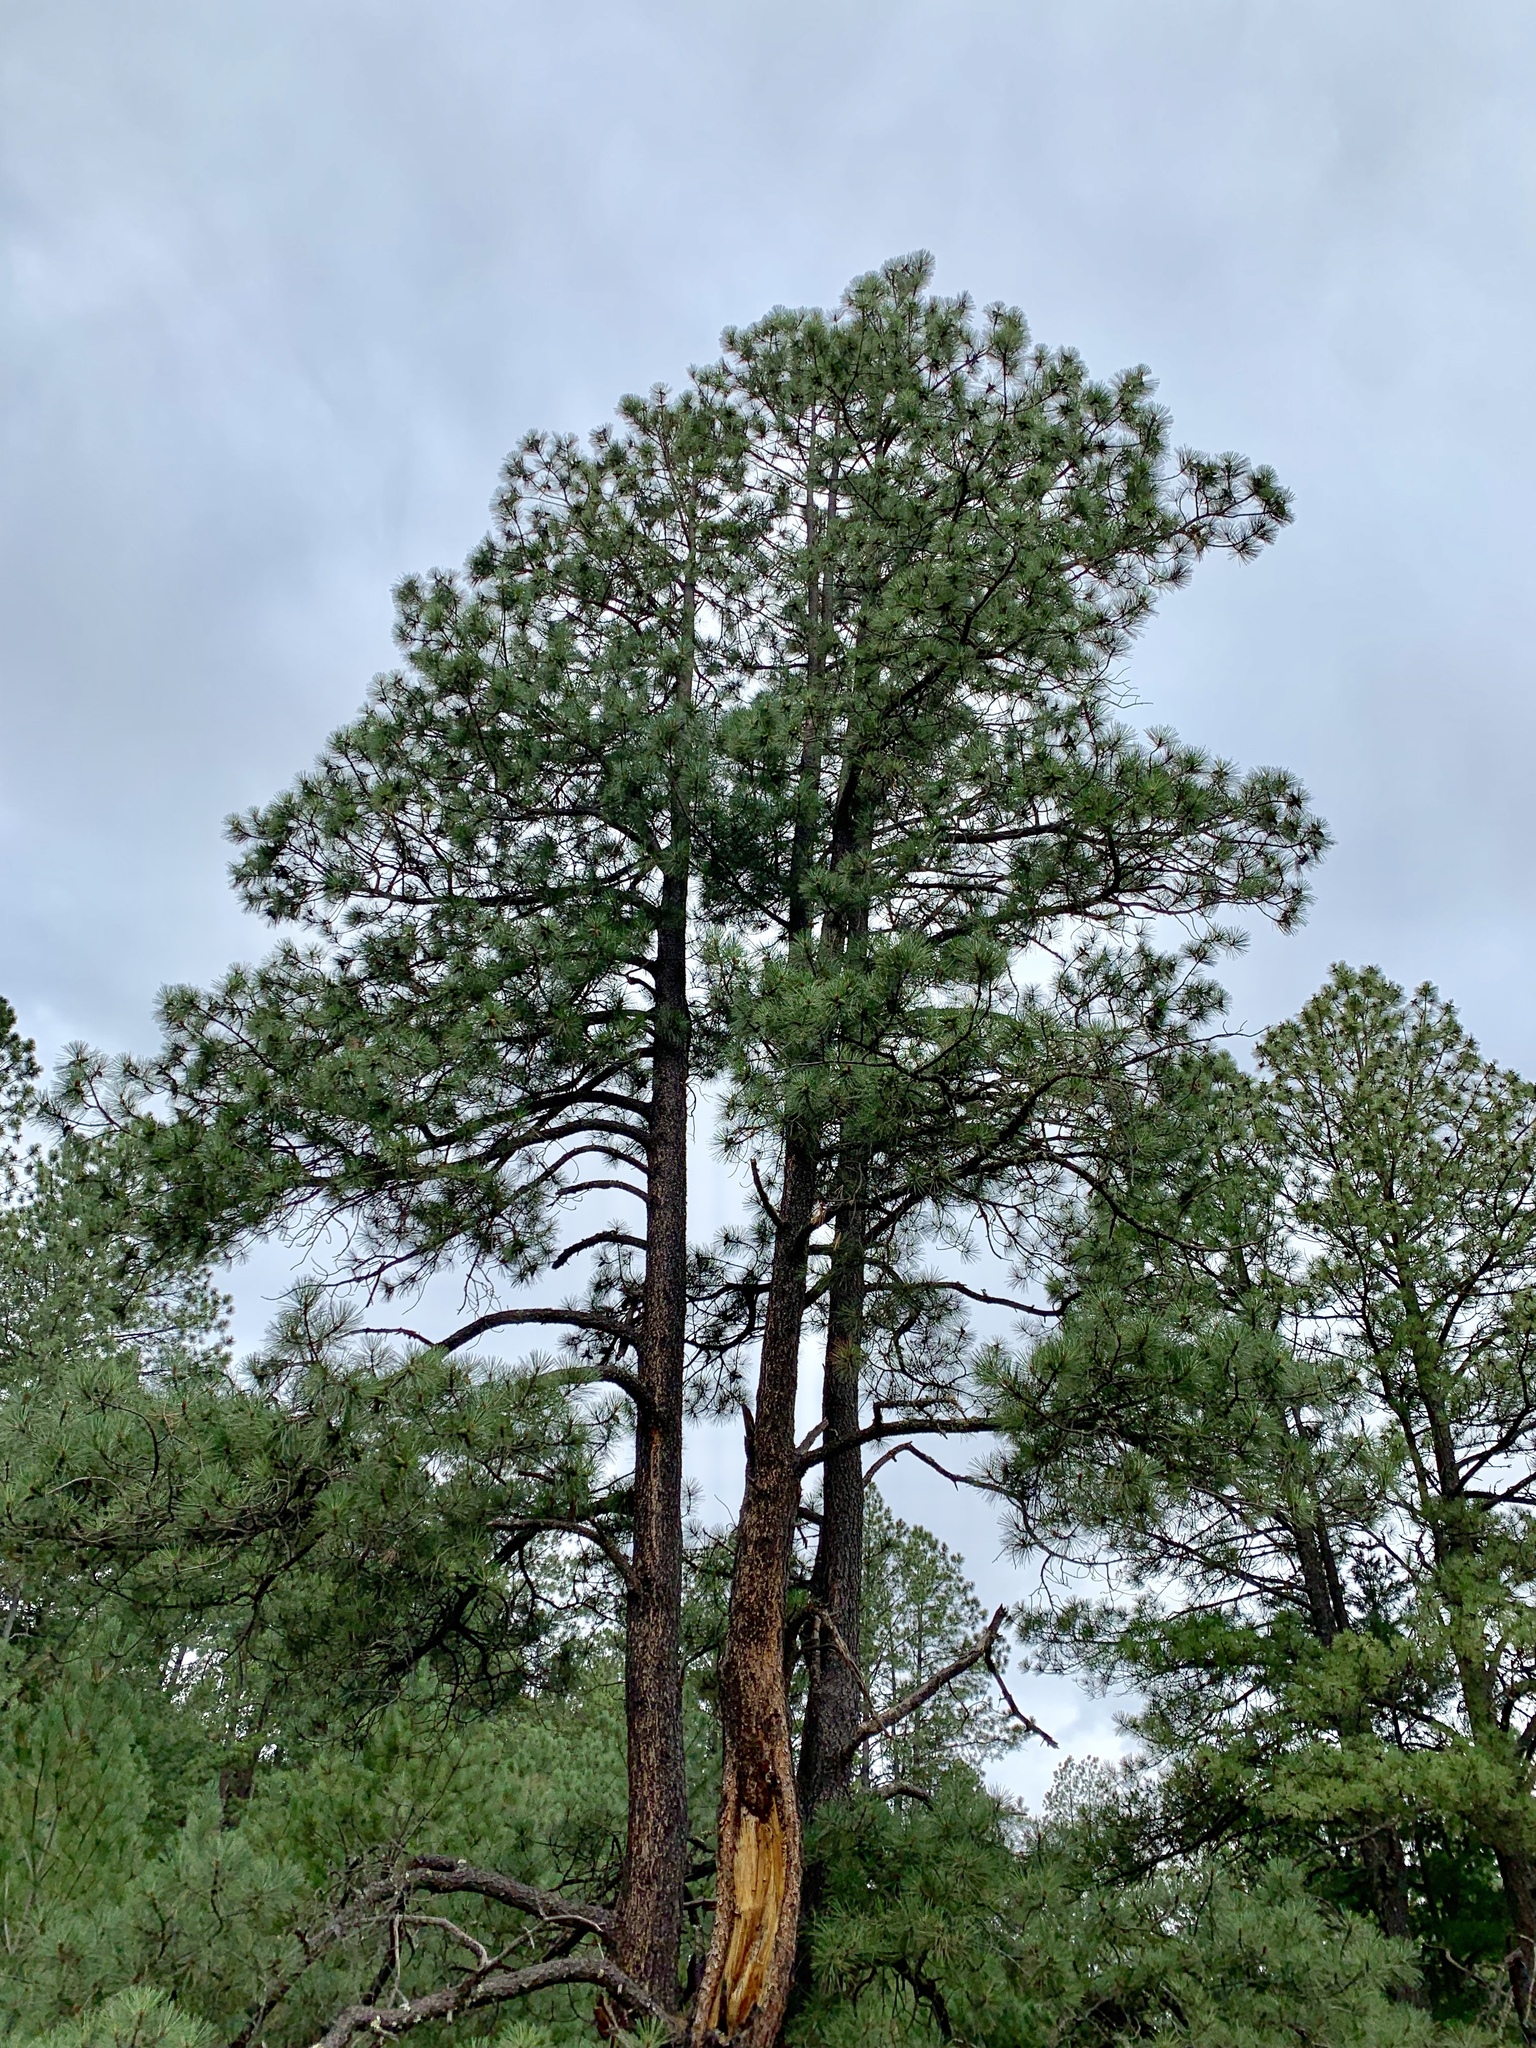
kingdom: Plantae
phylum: Tracheophyta
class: Pinopsida
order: Pinales
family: Pinaceae
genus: Pinus
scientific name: Pinus ponderosa
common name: Western yellow-pine
